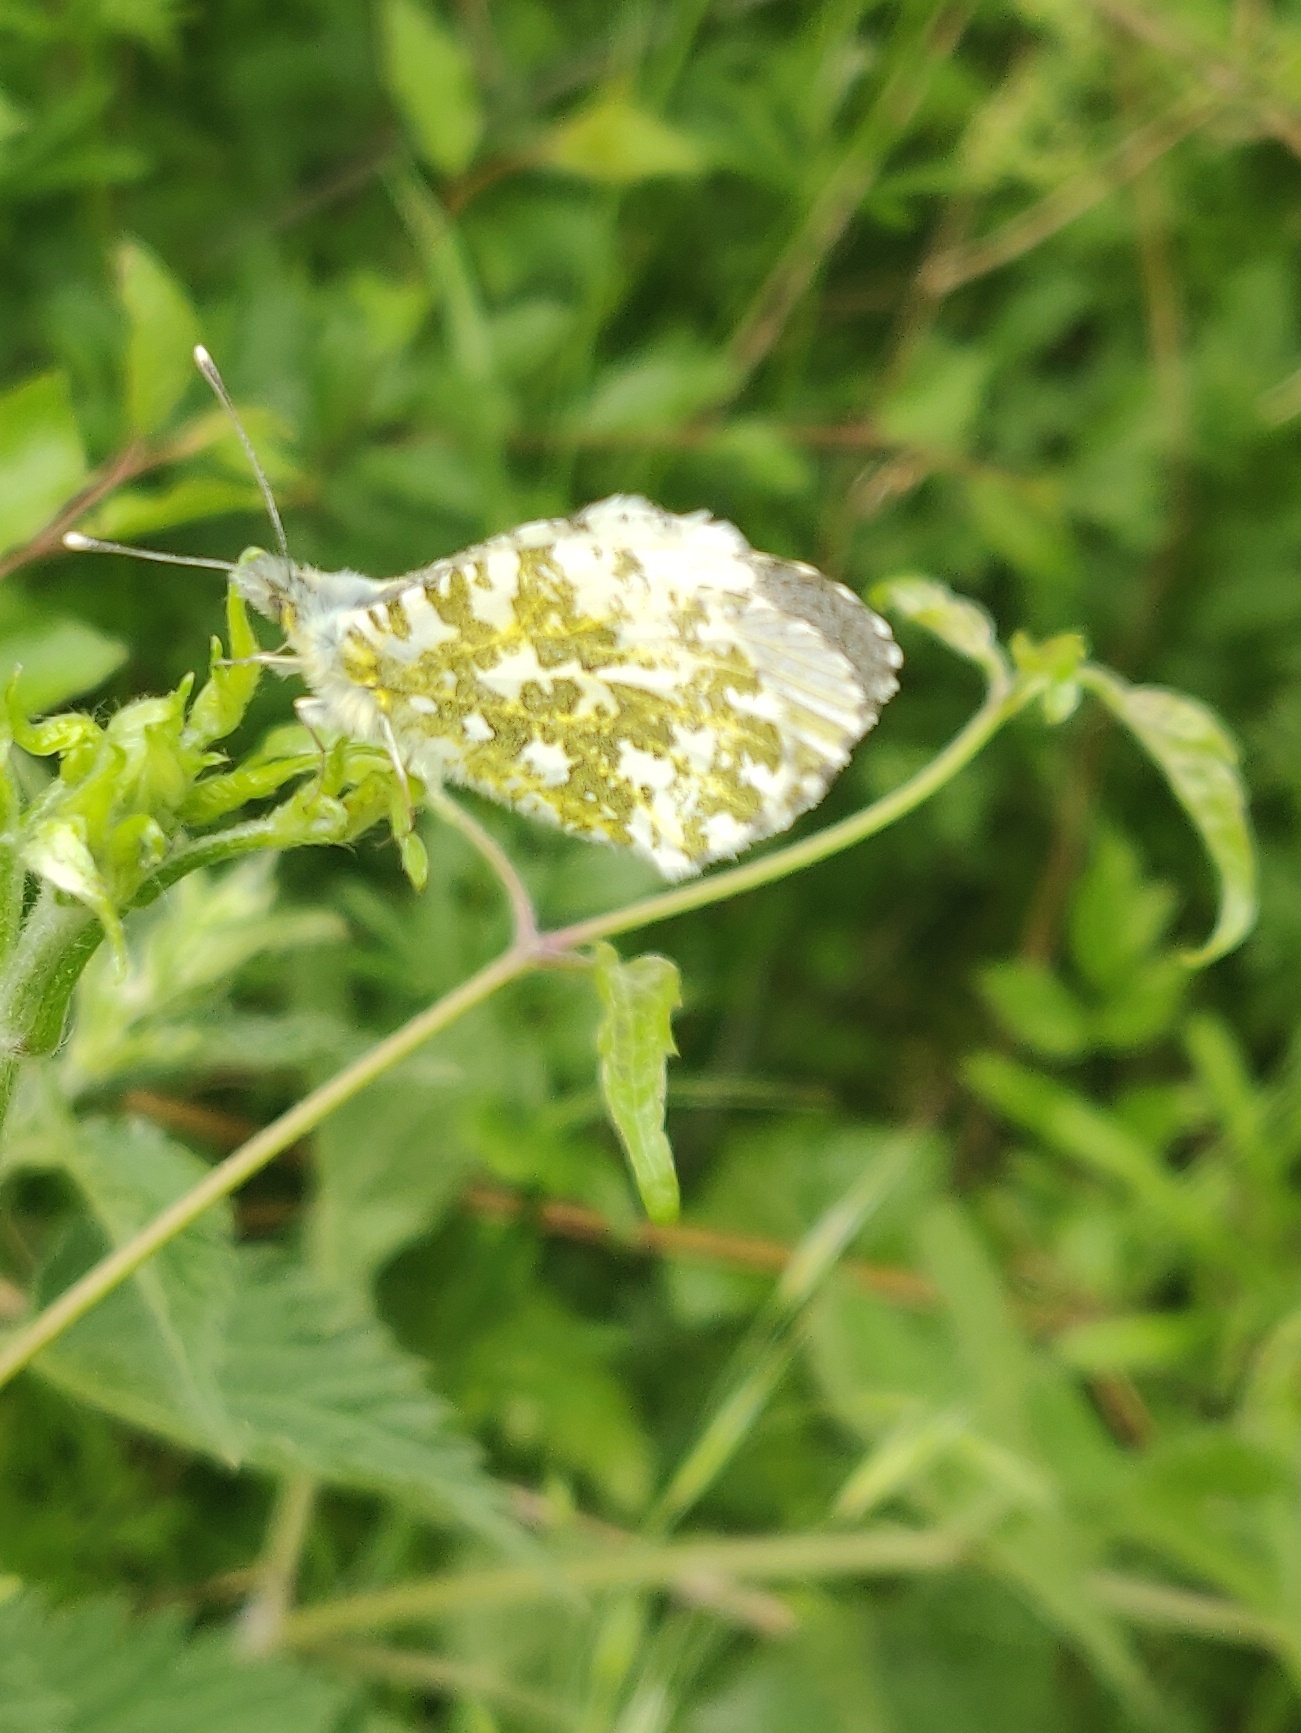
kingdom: Animalia
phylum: Arthropoda
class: Insecta
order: Lepidoptera
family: Pieridae
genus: Anthocharis
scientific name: Anthocharis cardamines
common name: Orange-tip
